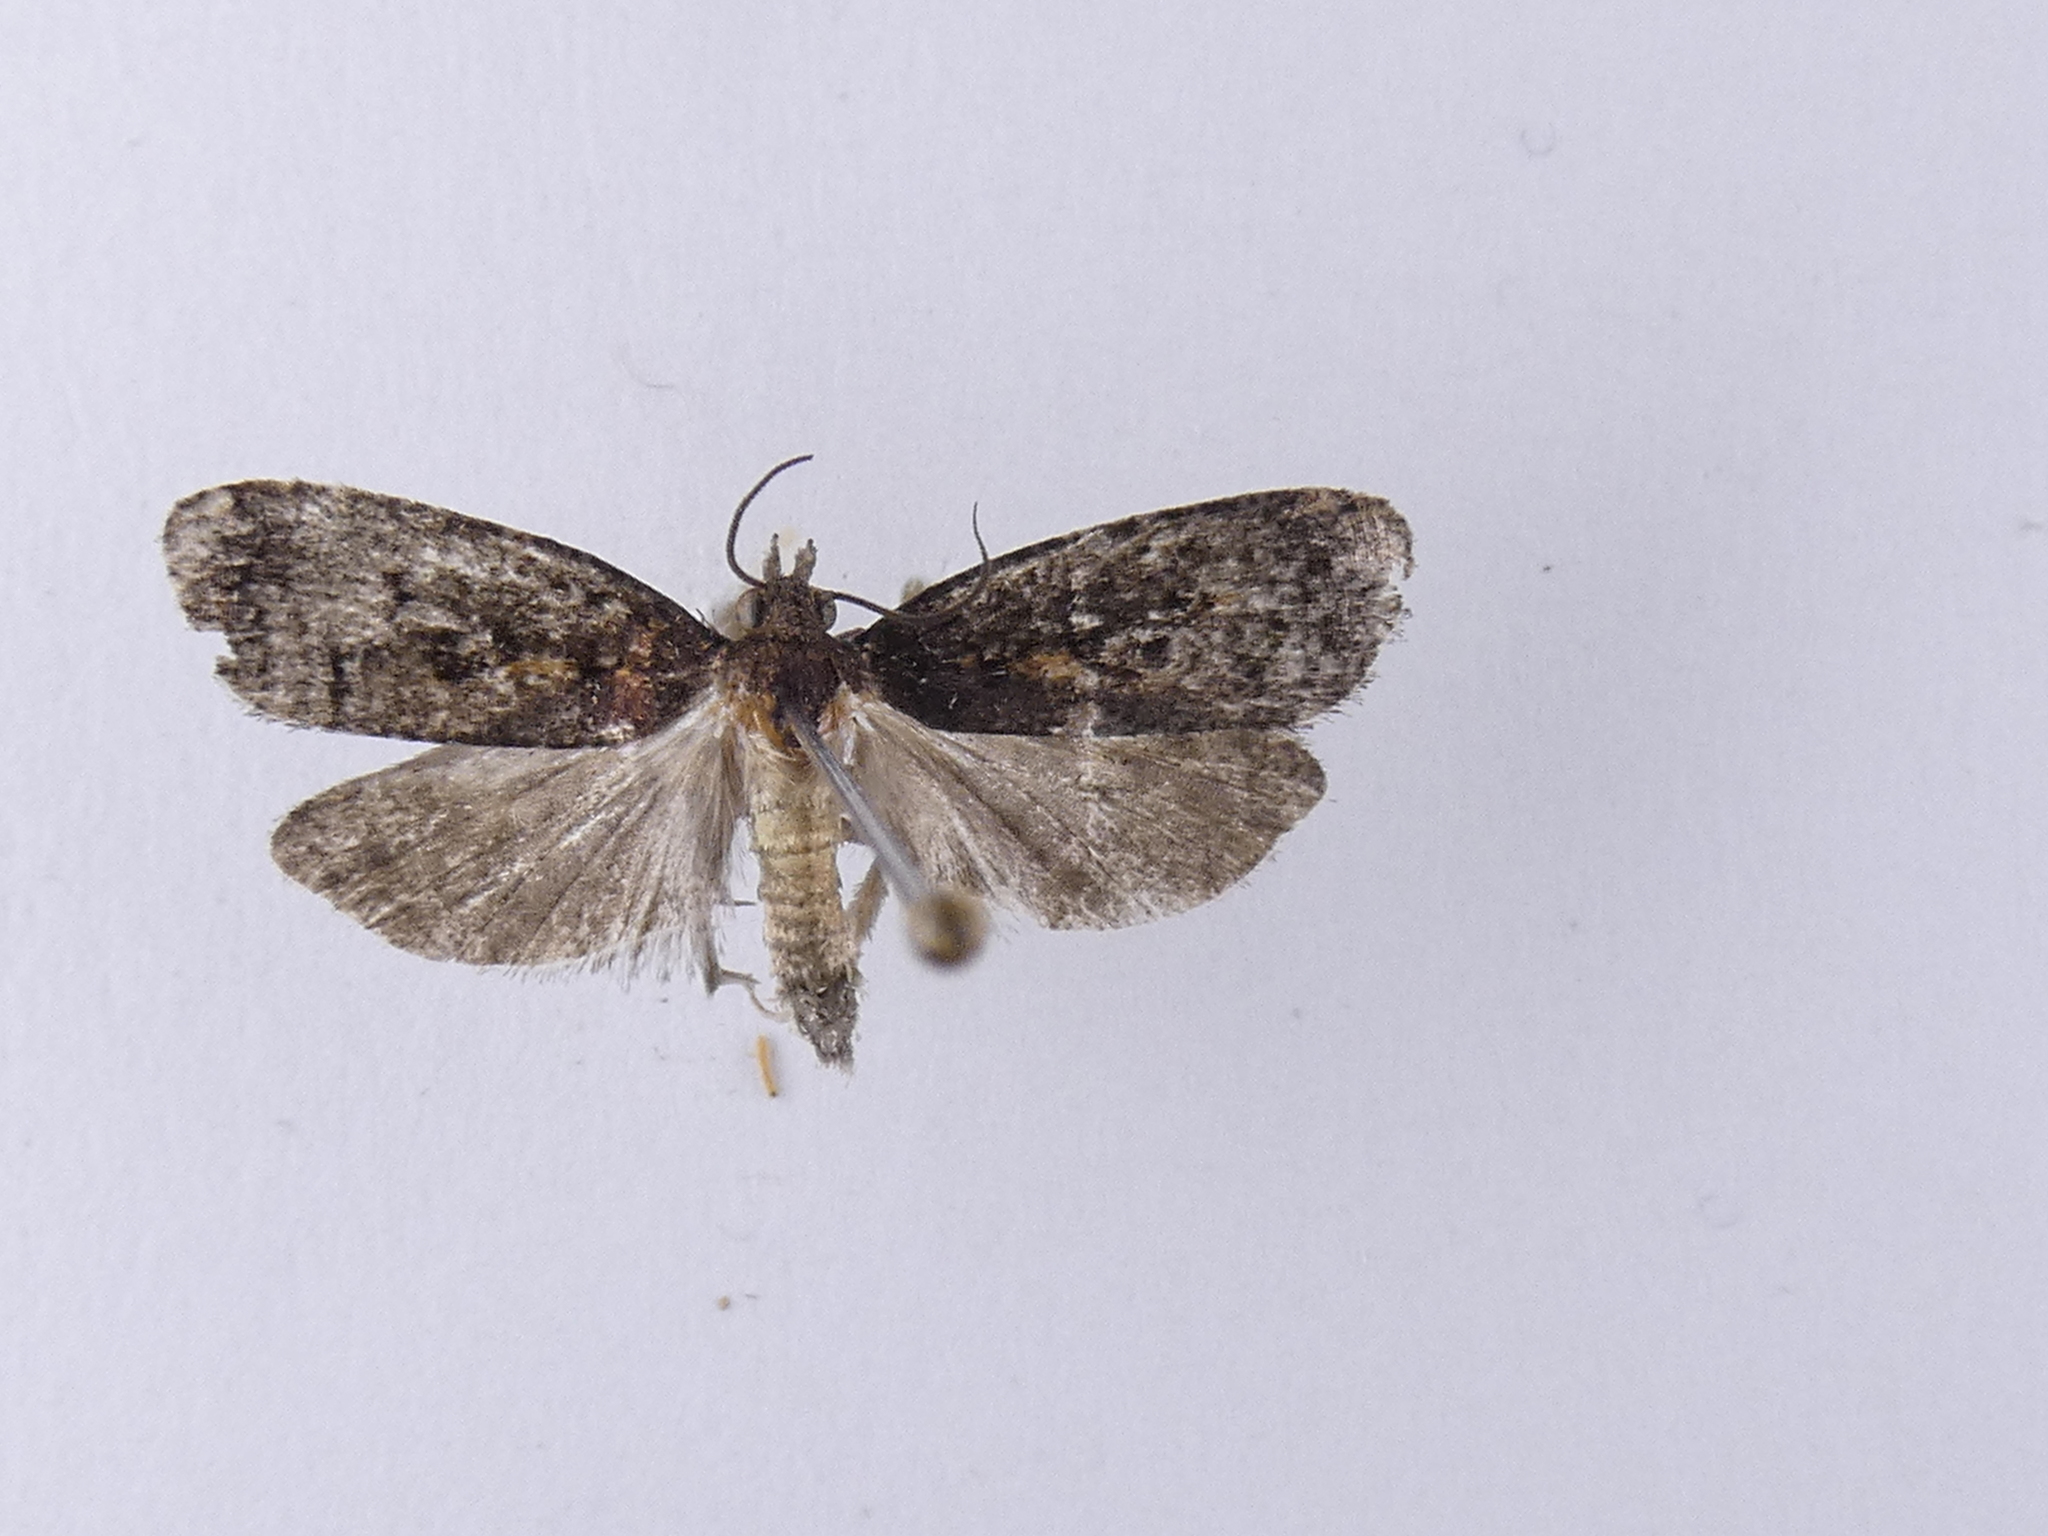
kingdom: Animalia
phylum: Arthropoda
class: Insecta
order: Lepidoptera
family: Tortricidae
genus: Cryptaspasma
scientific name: Cryptaspasma querula
